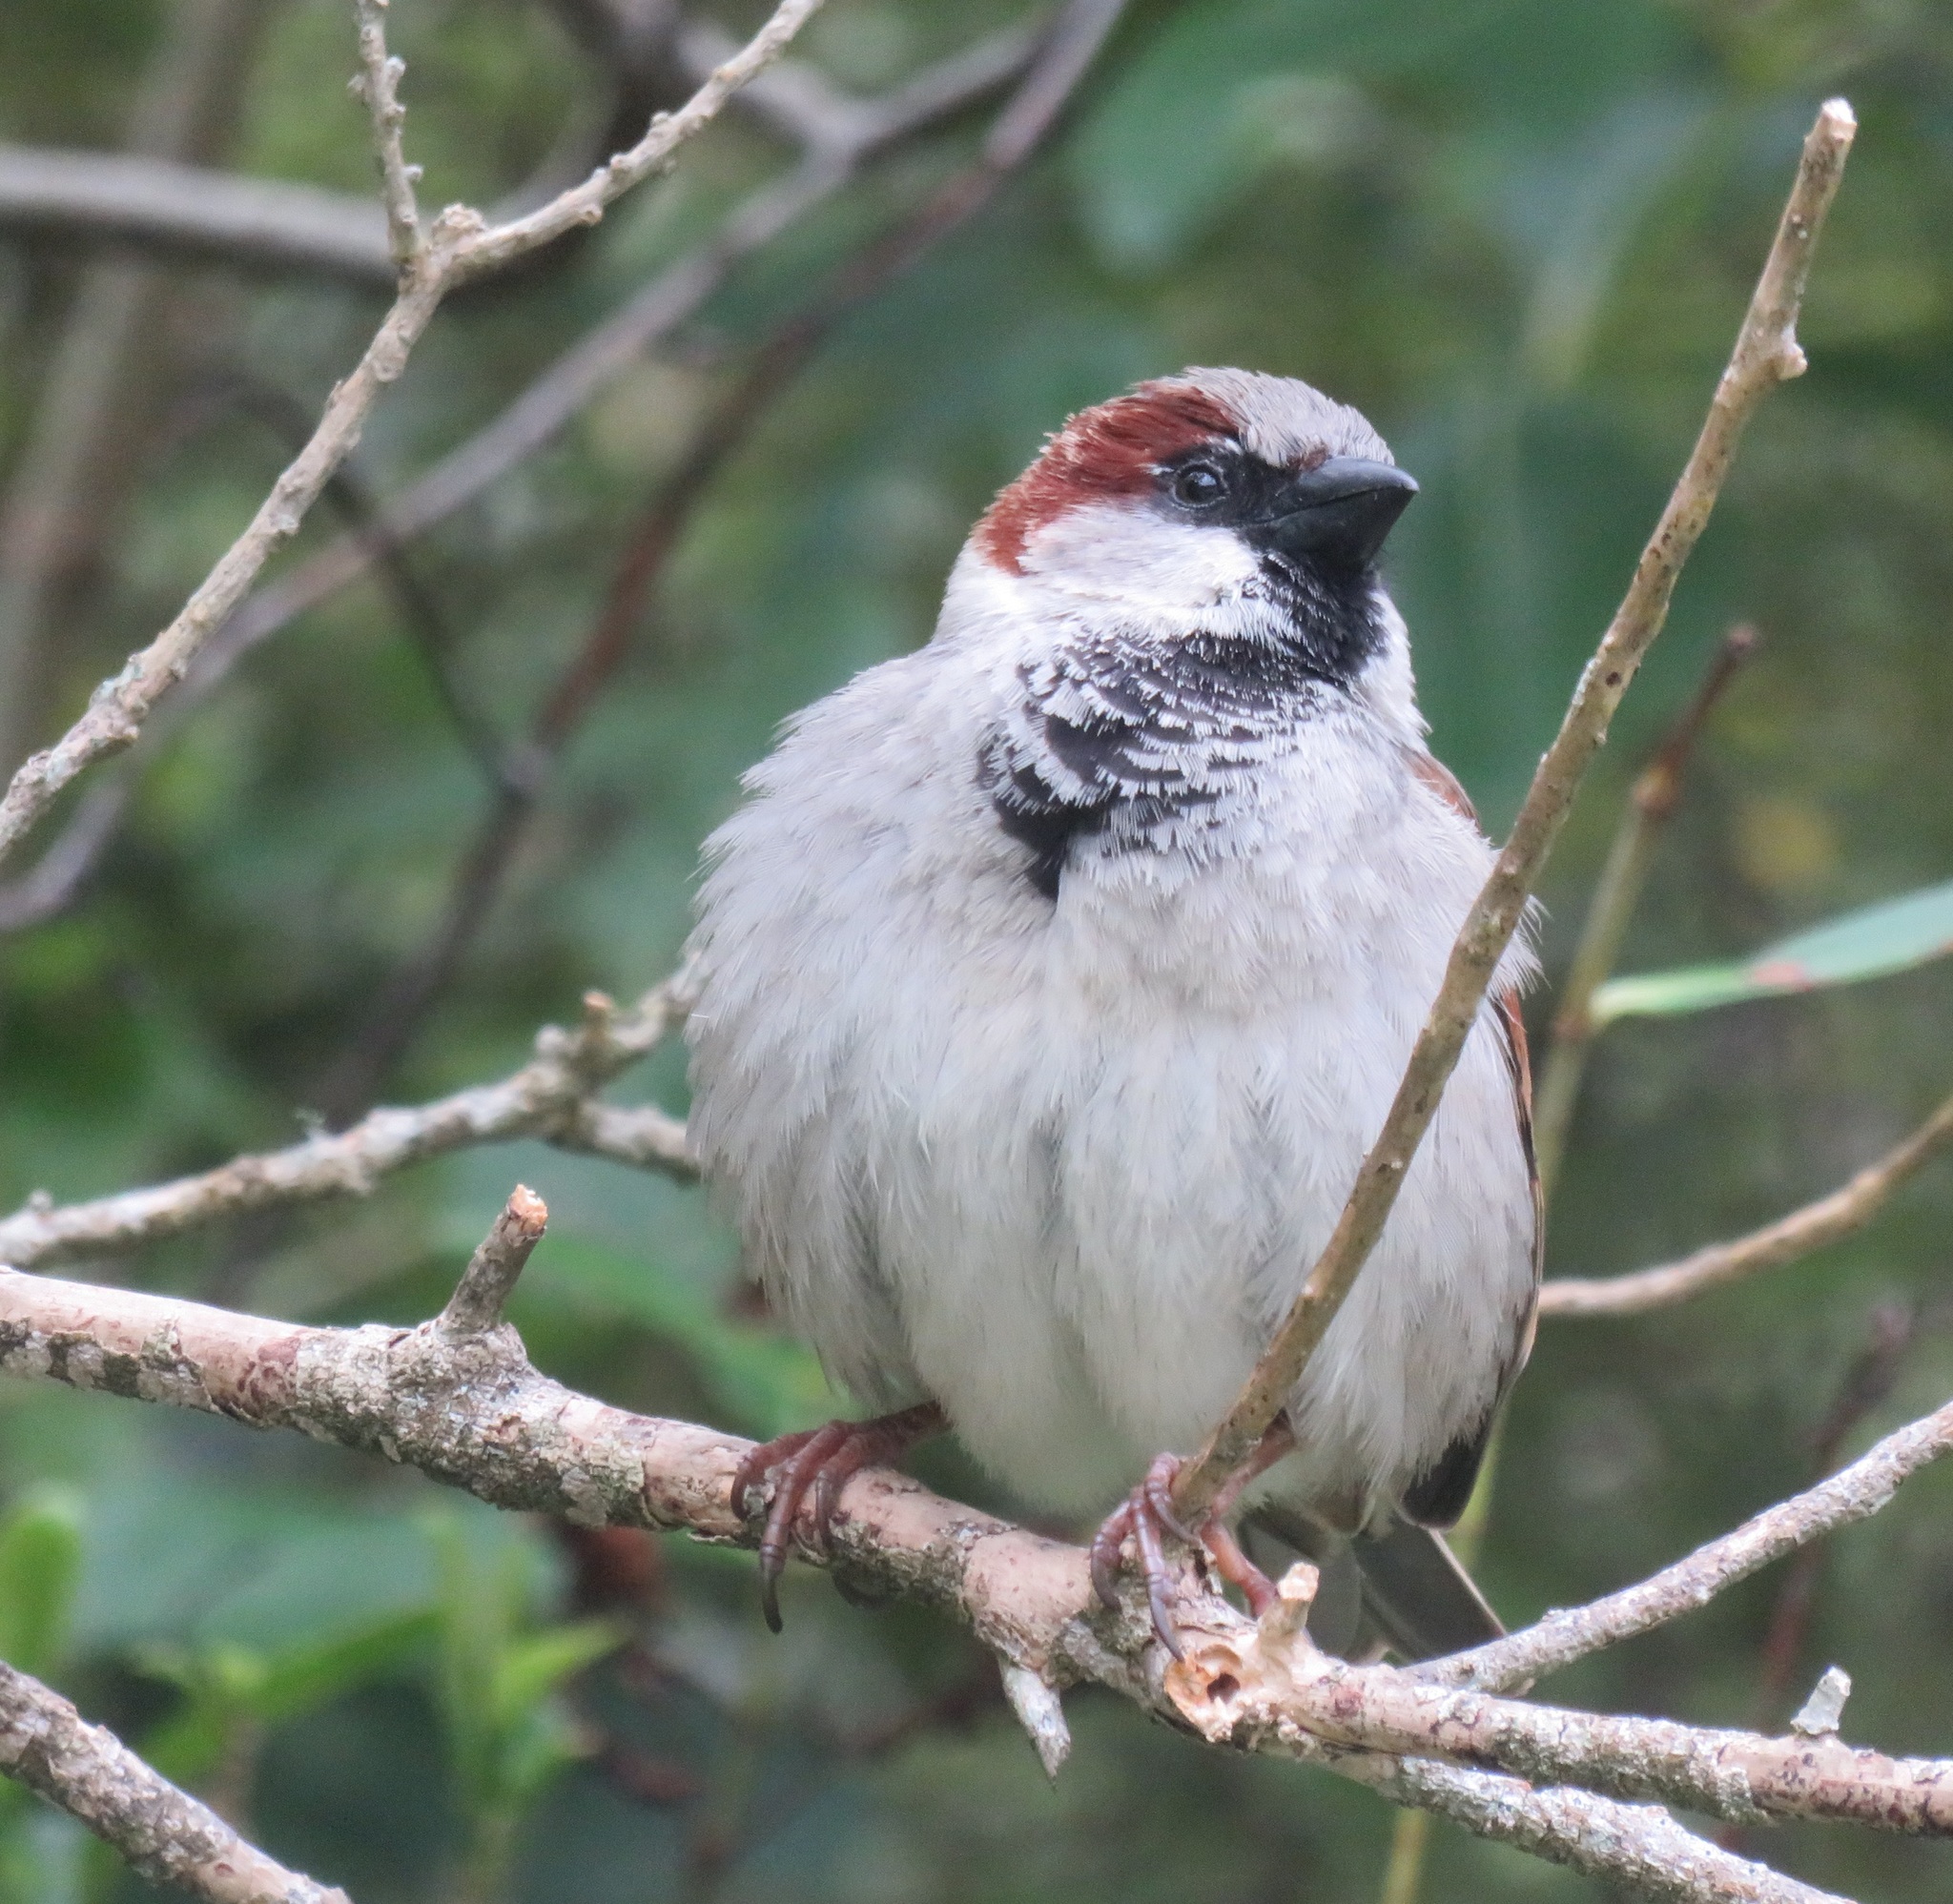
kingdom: Animalia
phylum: Chordata
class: Aves
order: Passeriformes
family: Passeridae
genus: Passer
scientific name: Passer domesticus
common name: House sparrow
